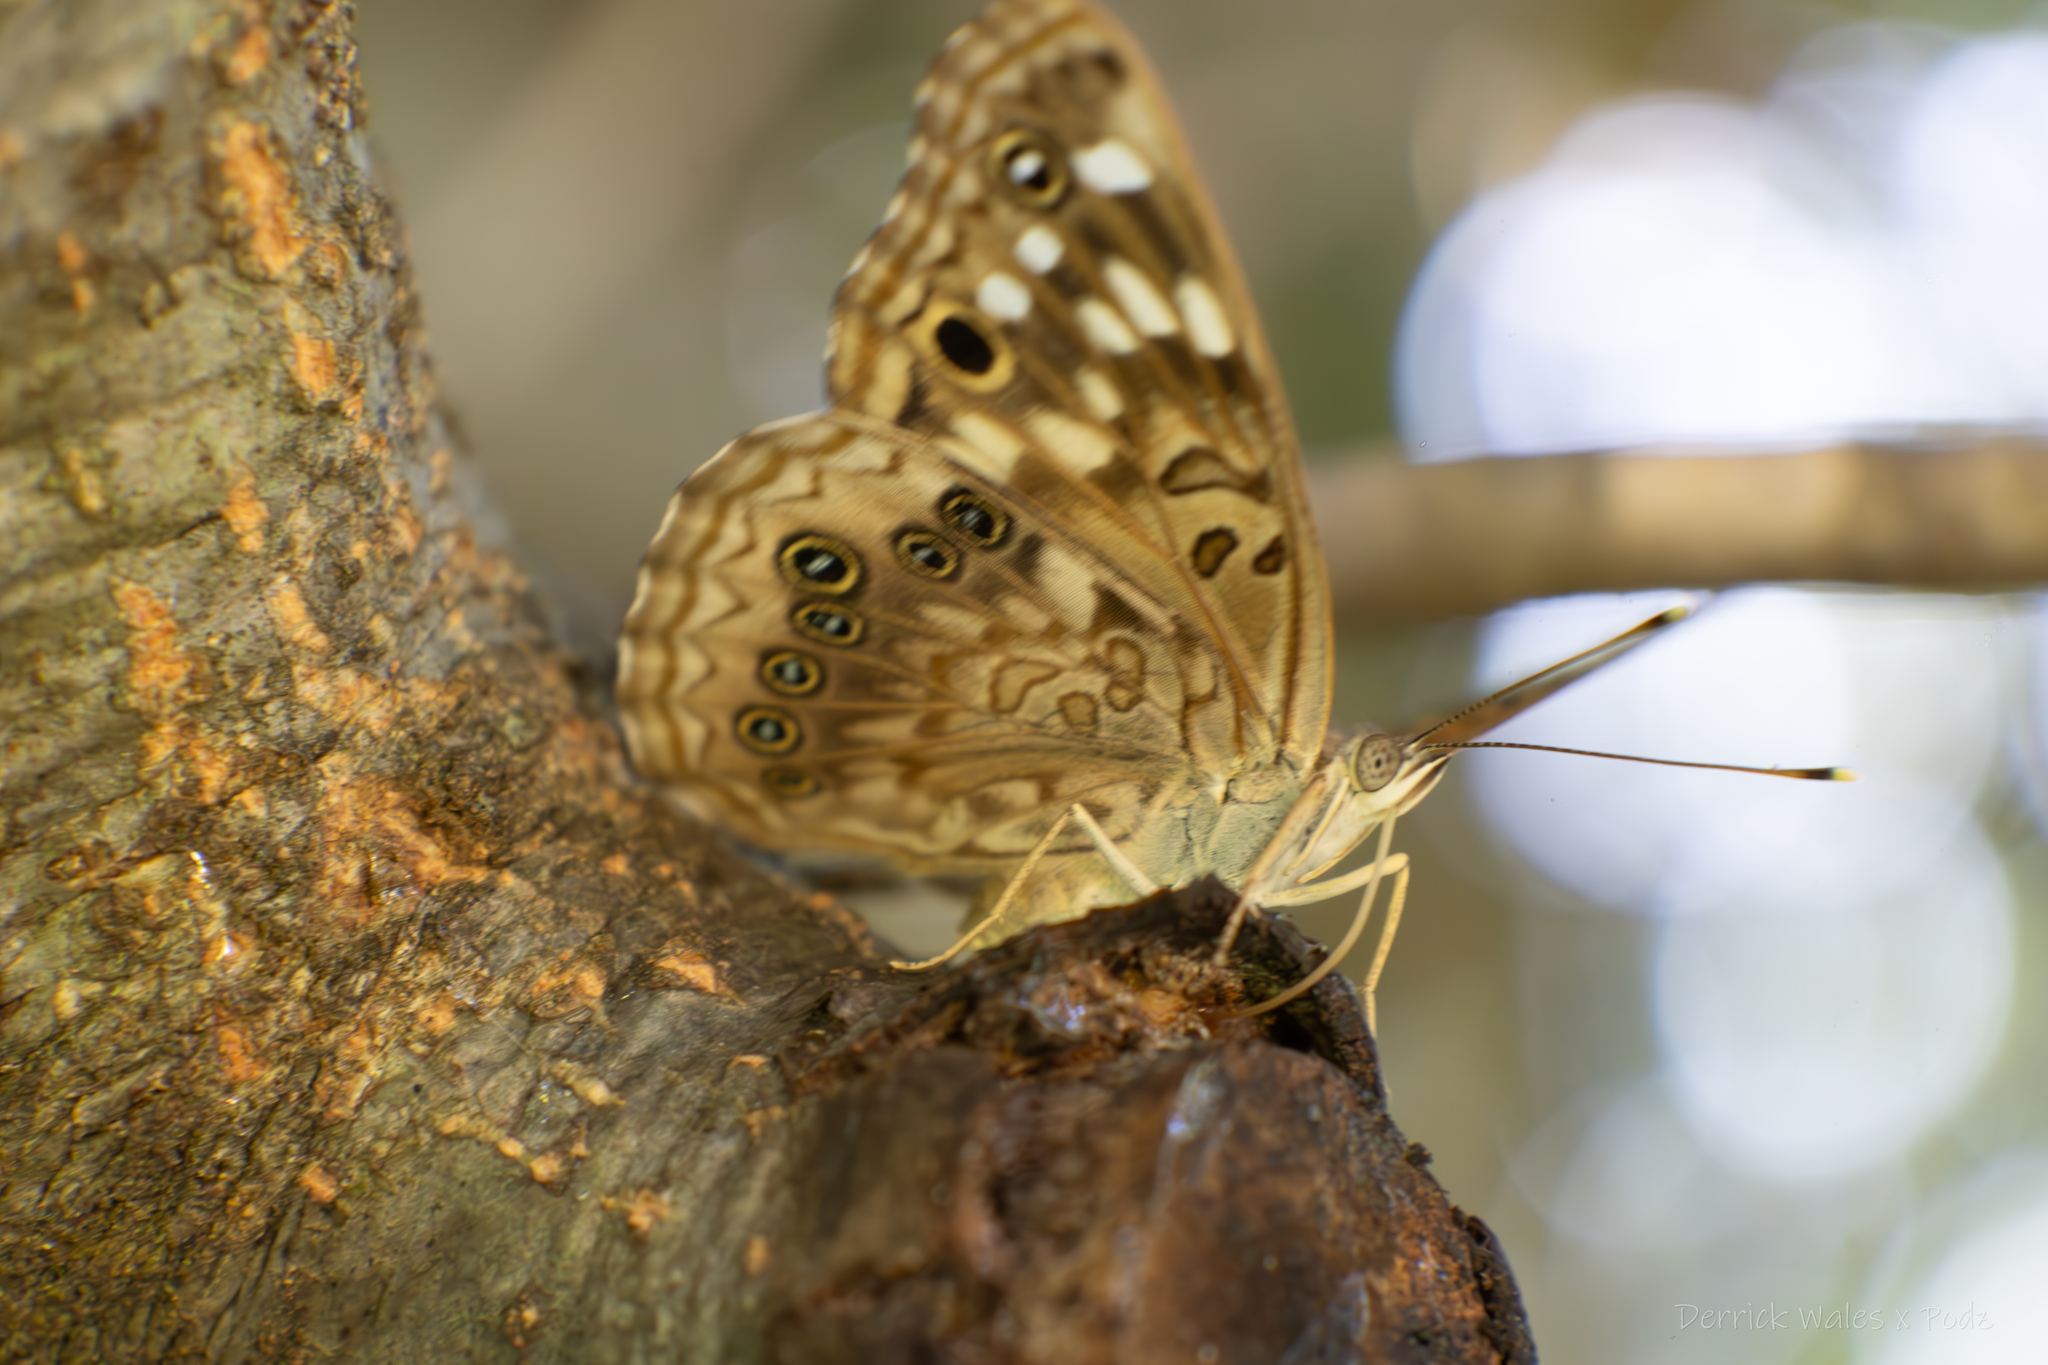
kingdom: Animalia
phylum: Arthropoda
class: Insecta
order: Lepidoptera
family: Nymphalidae
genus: Asterocampa
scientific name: Asterocampa celtis
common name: Hackberry emperor
